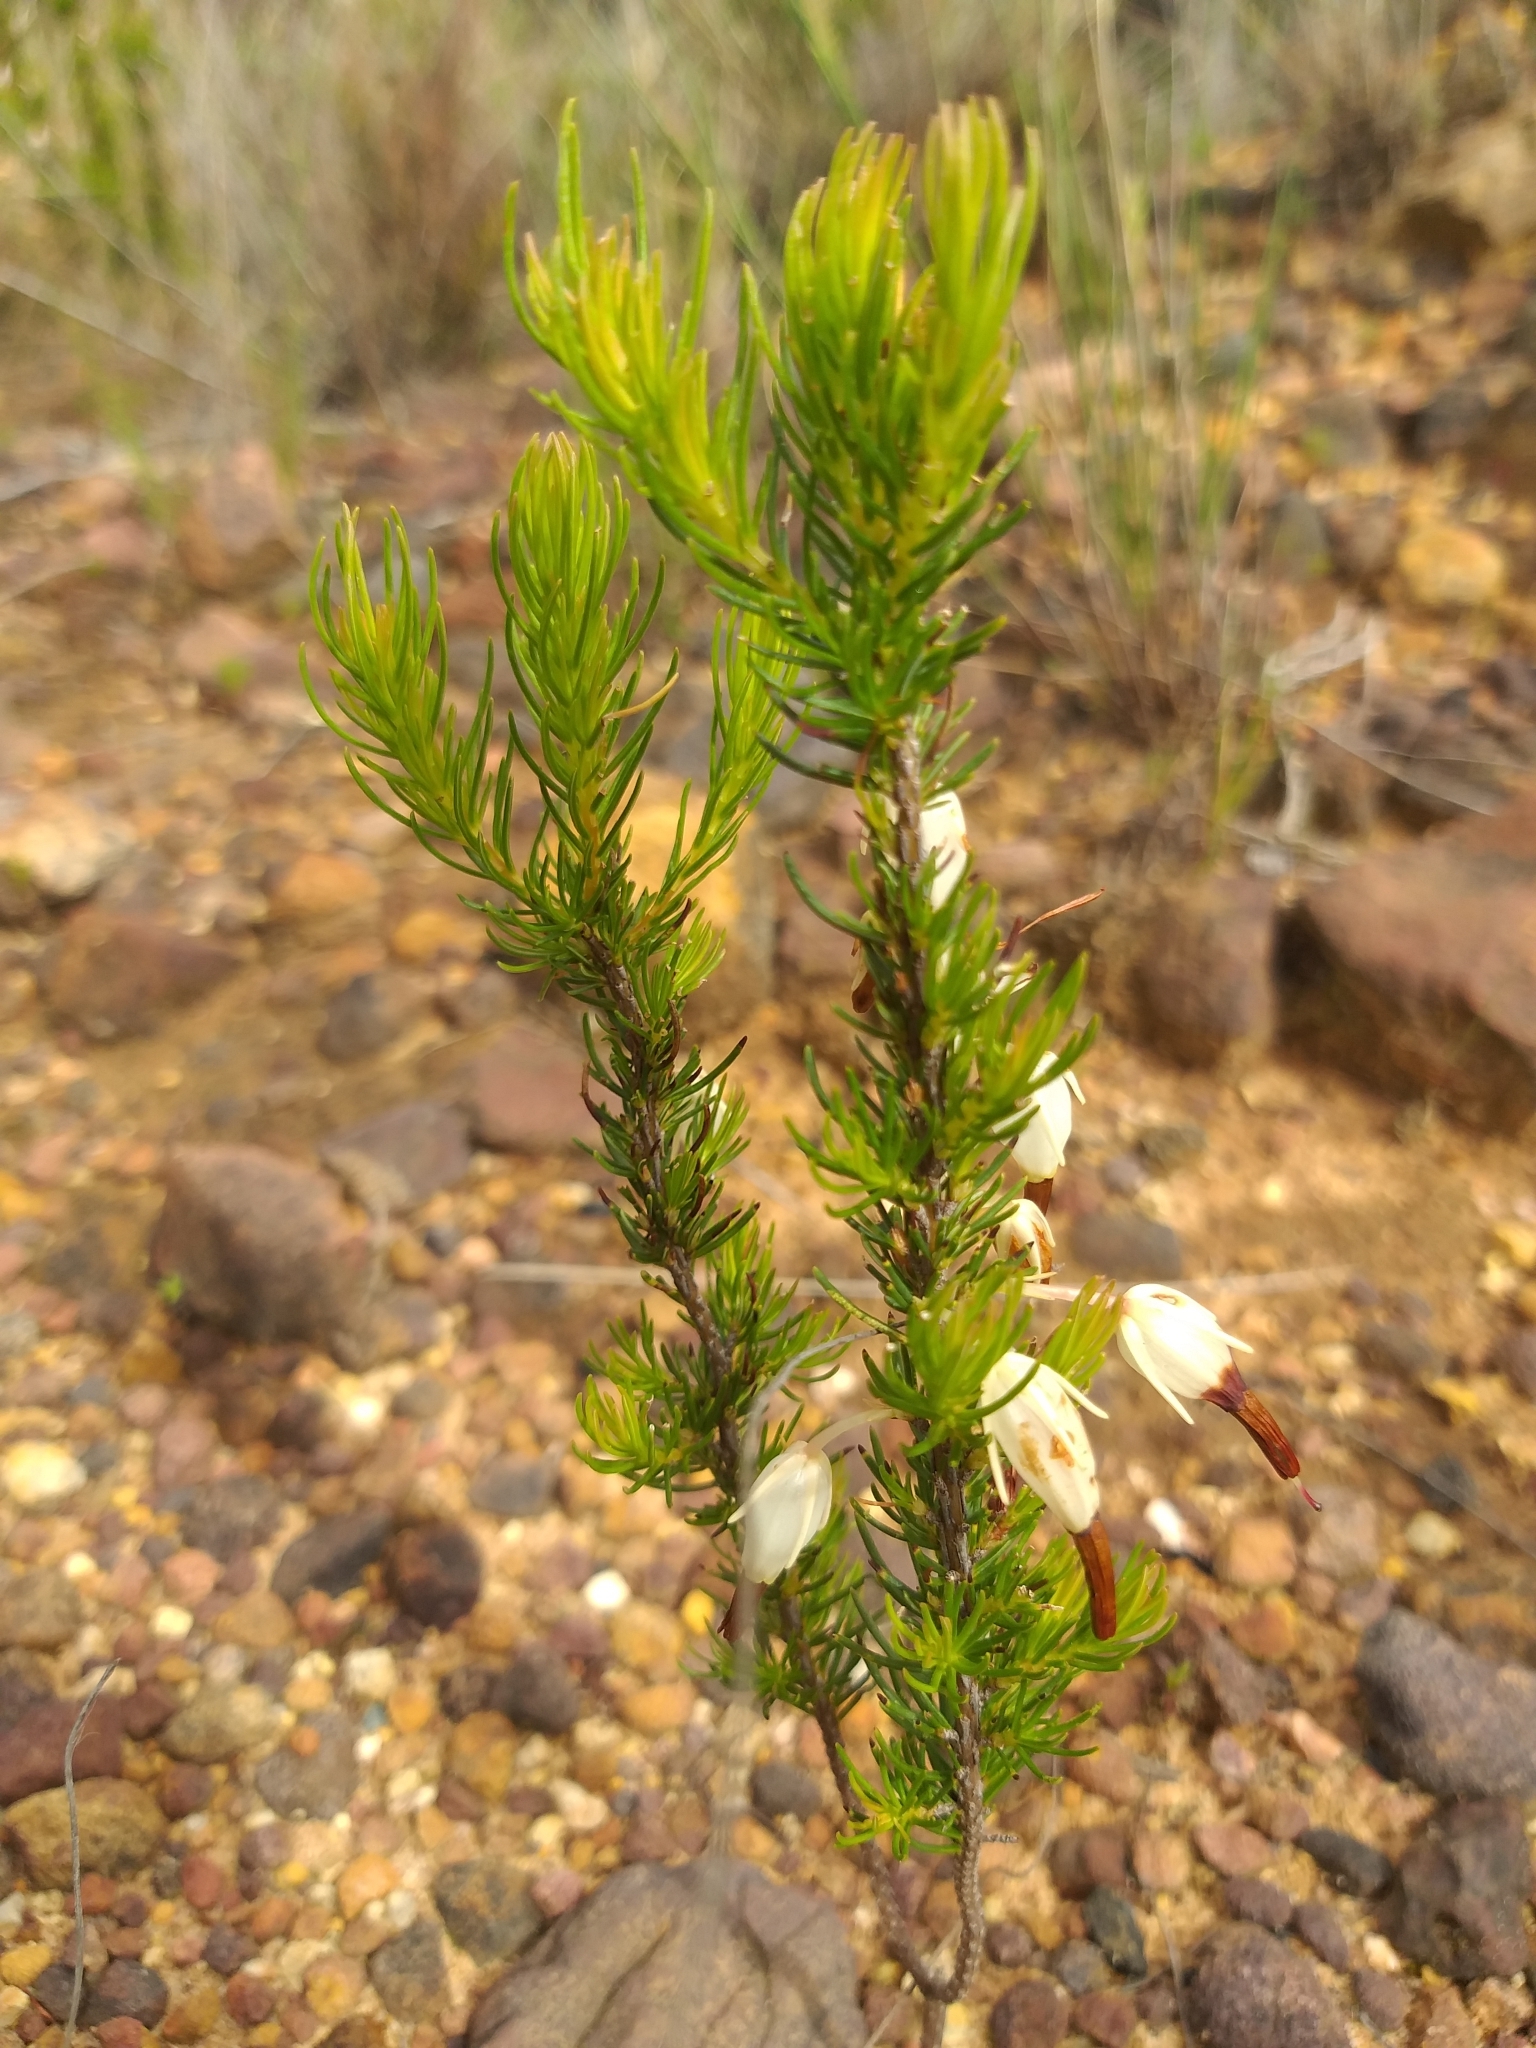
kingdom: Plantae
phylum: Tracheophyta
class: Magnoliopsida
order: Ericales
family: Ericaceae
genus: Erica
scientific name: Erica plukenetii
